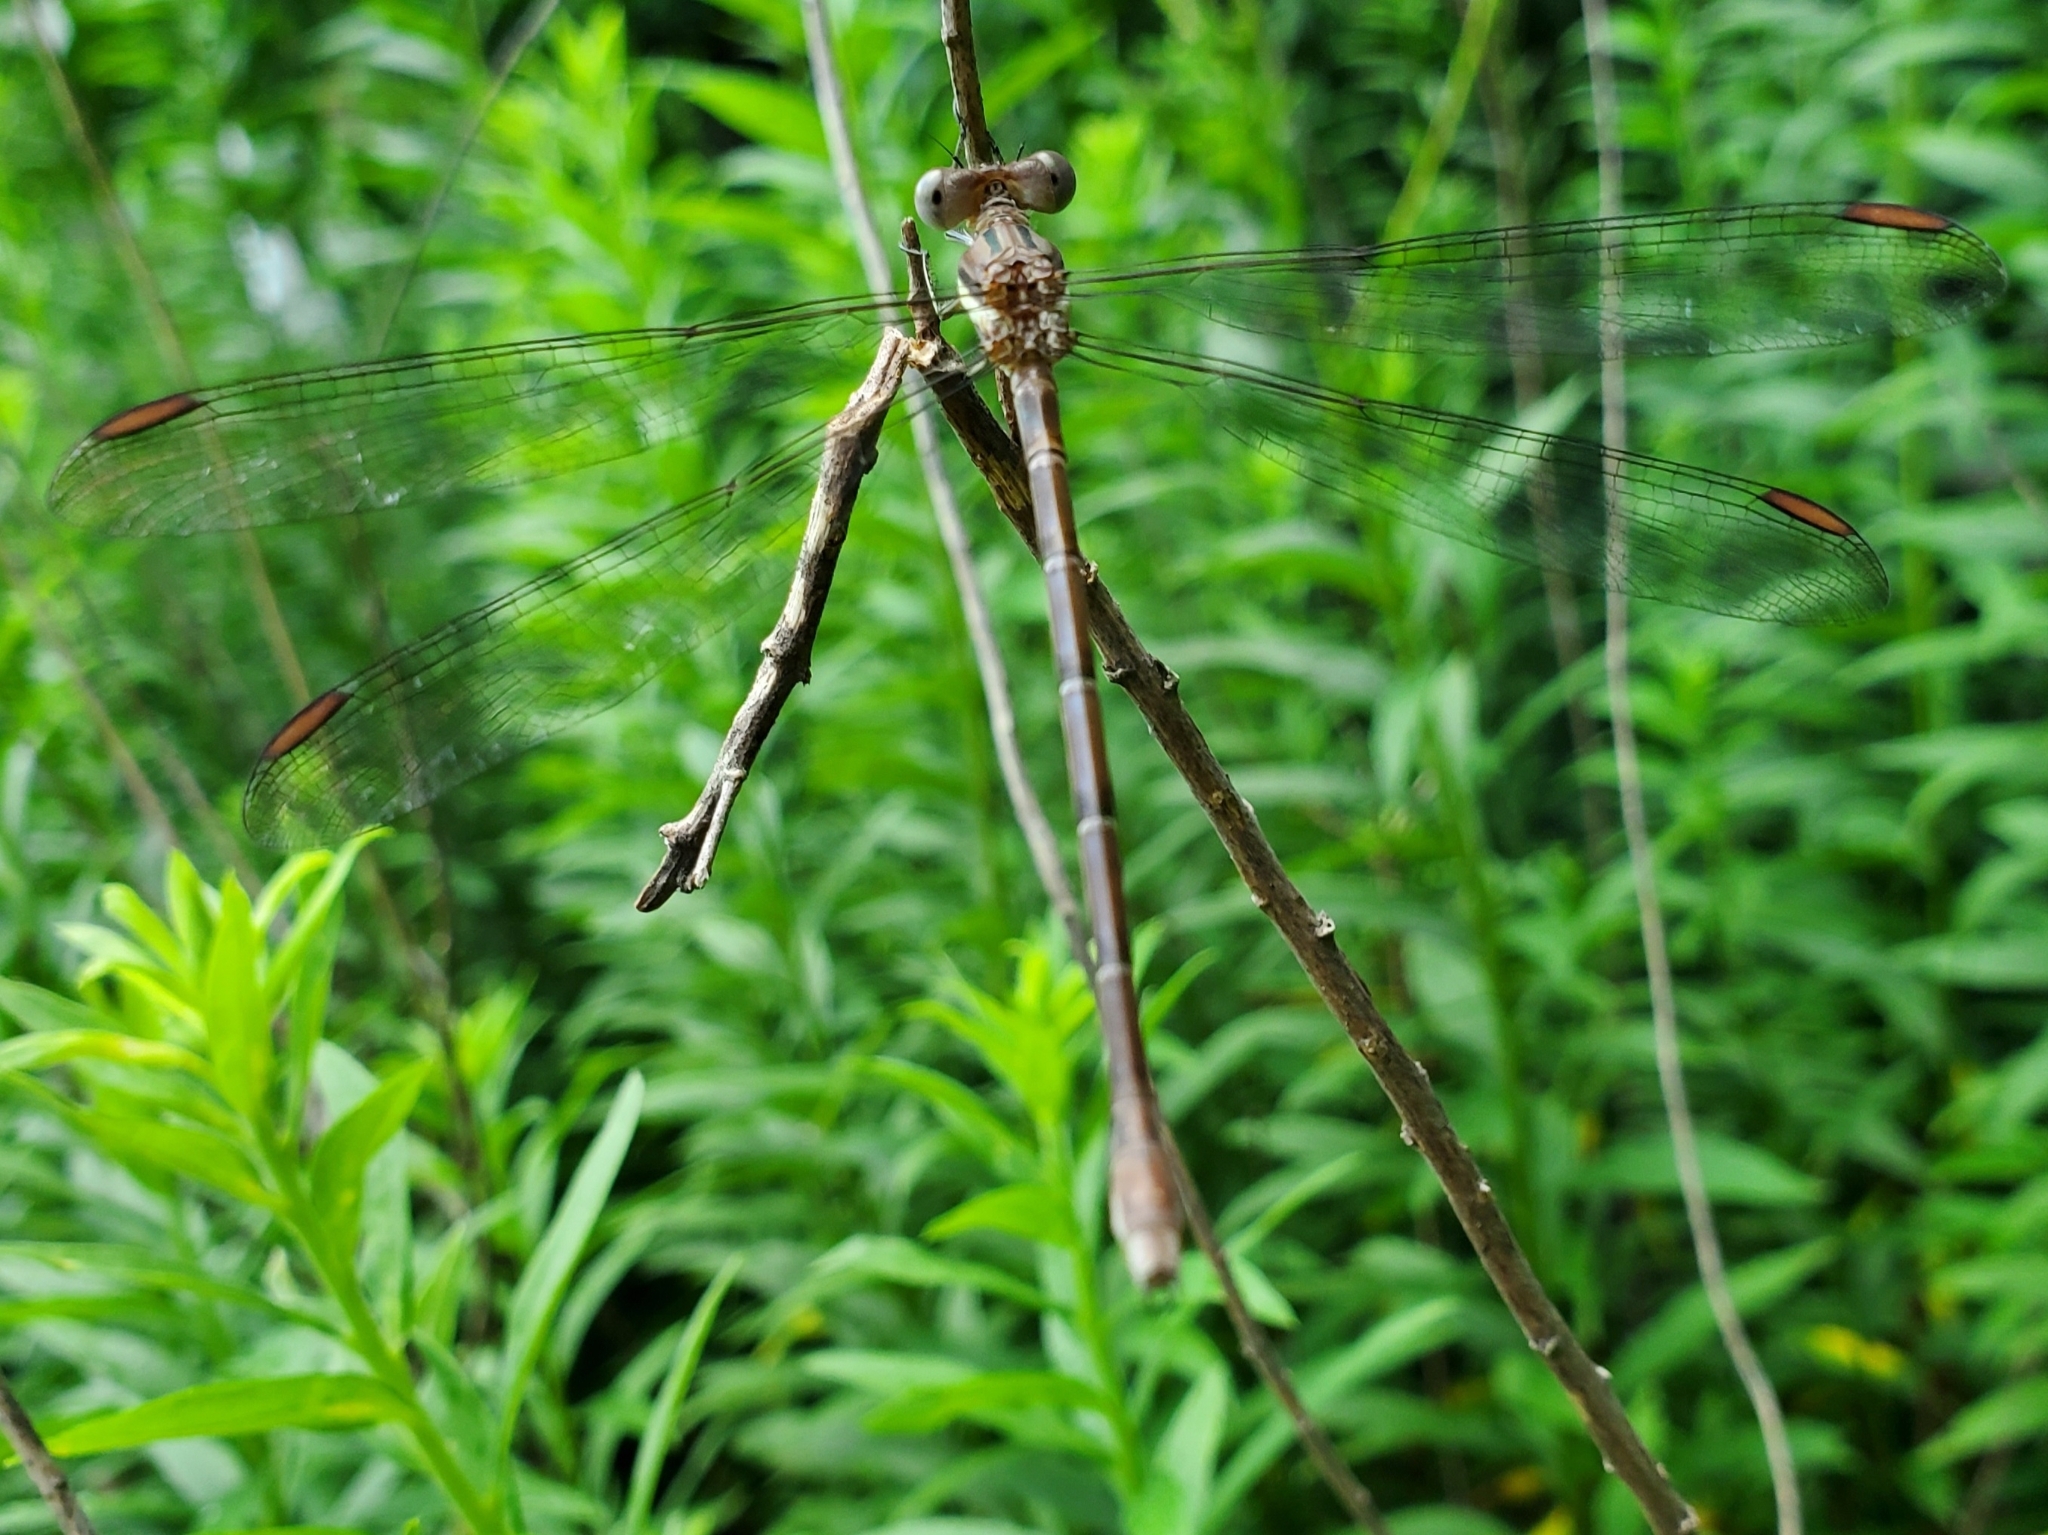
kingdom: Animalia
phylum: Arthropoda
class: Insecta
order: Odonata
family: Lestidae
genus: Archilestes
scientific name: Archilestes grandis
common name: Great spreadwing
